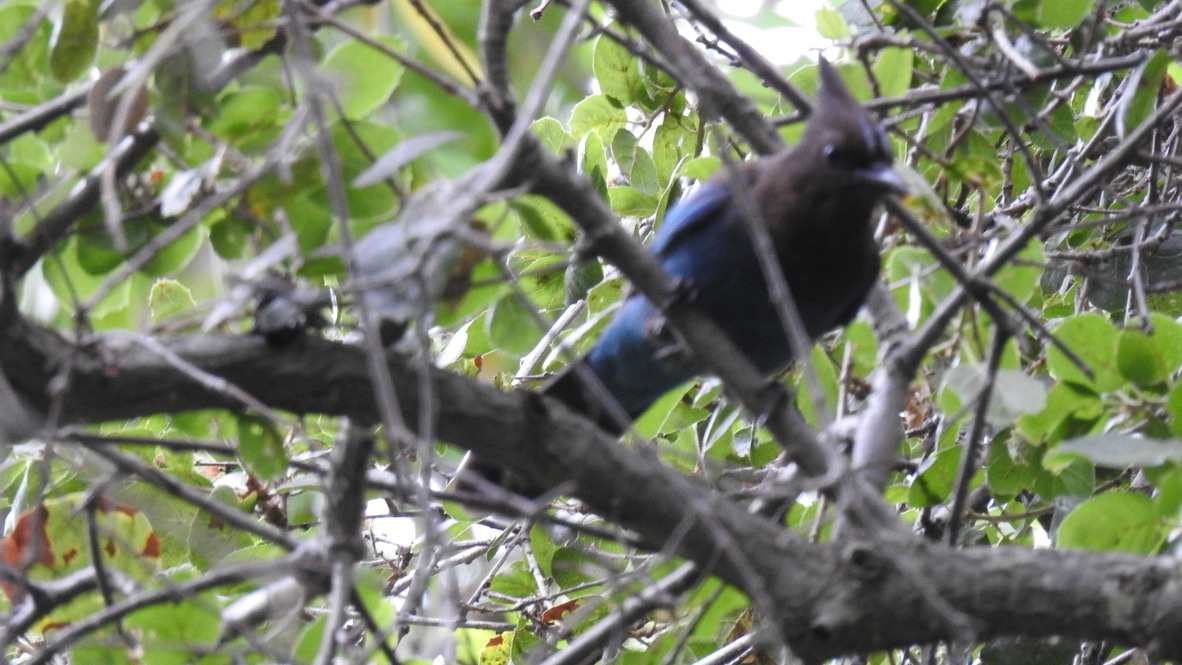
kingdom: Animalia
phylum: Chordata
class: Aves
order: Passeriformes
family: Corvidae
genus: Cyanocitta
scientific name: Cyanocitta stelleri
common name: Steller's jay
